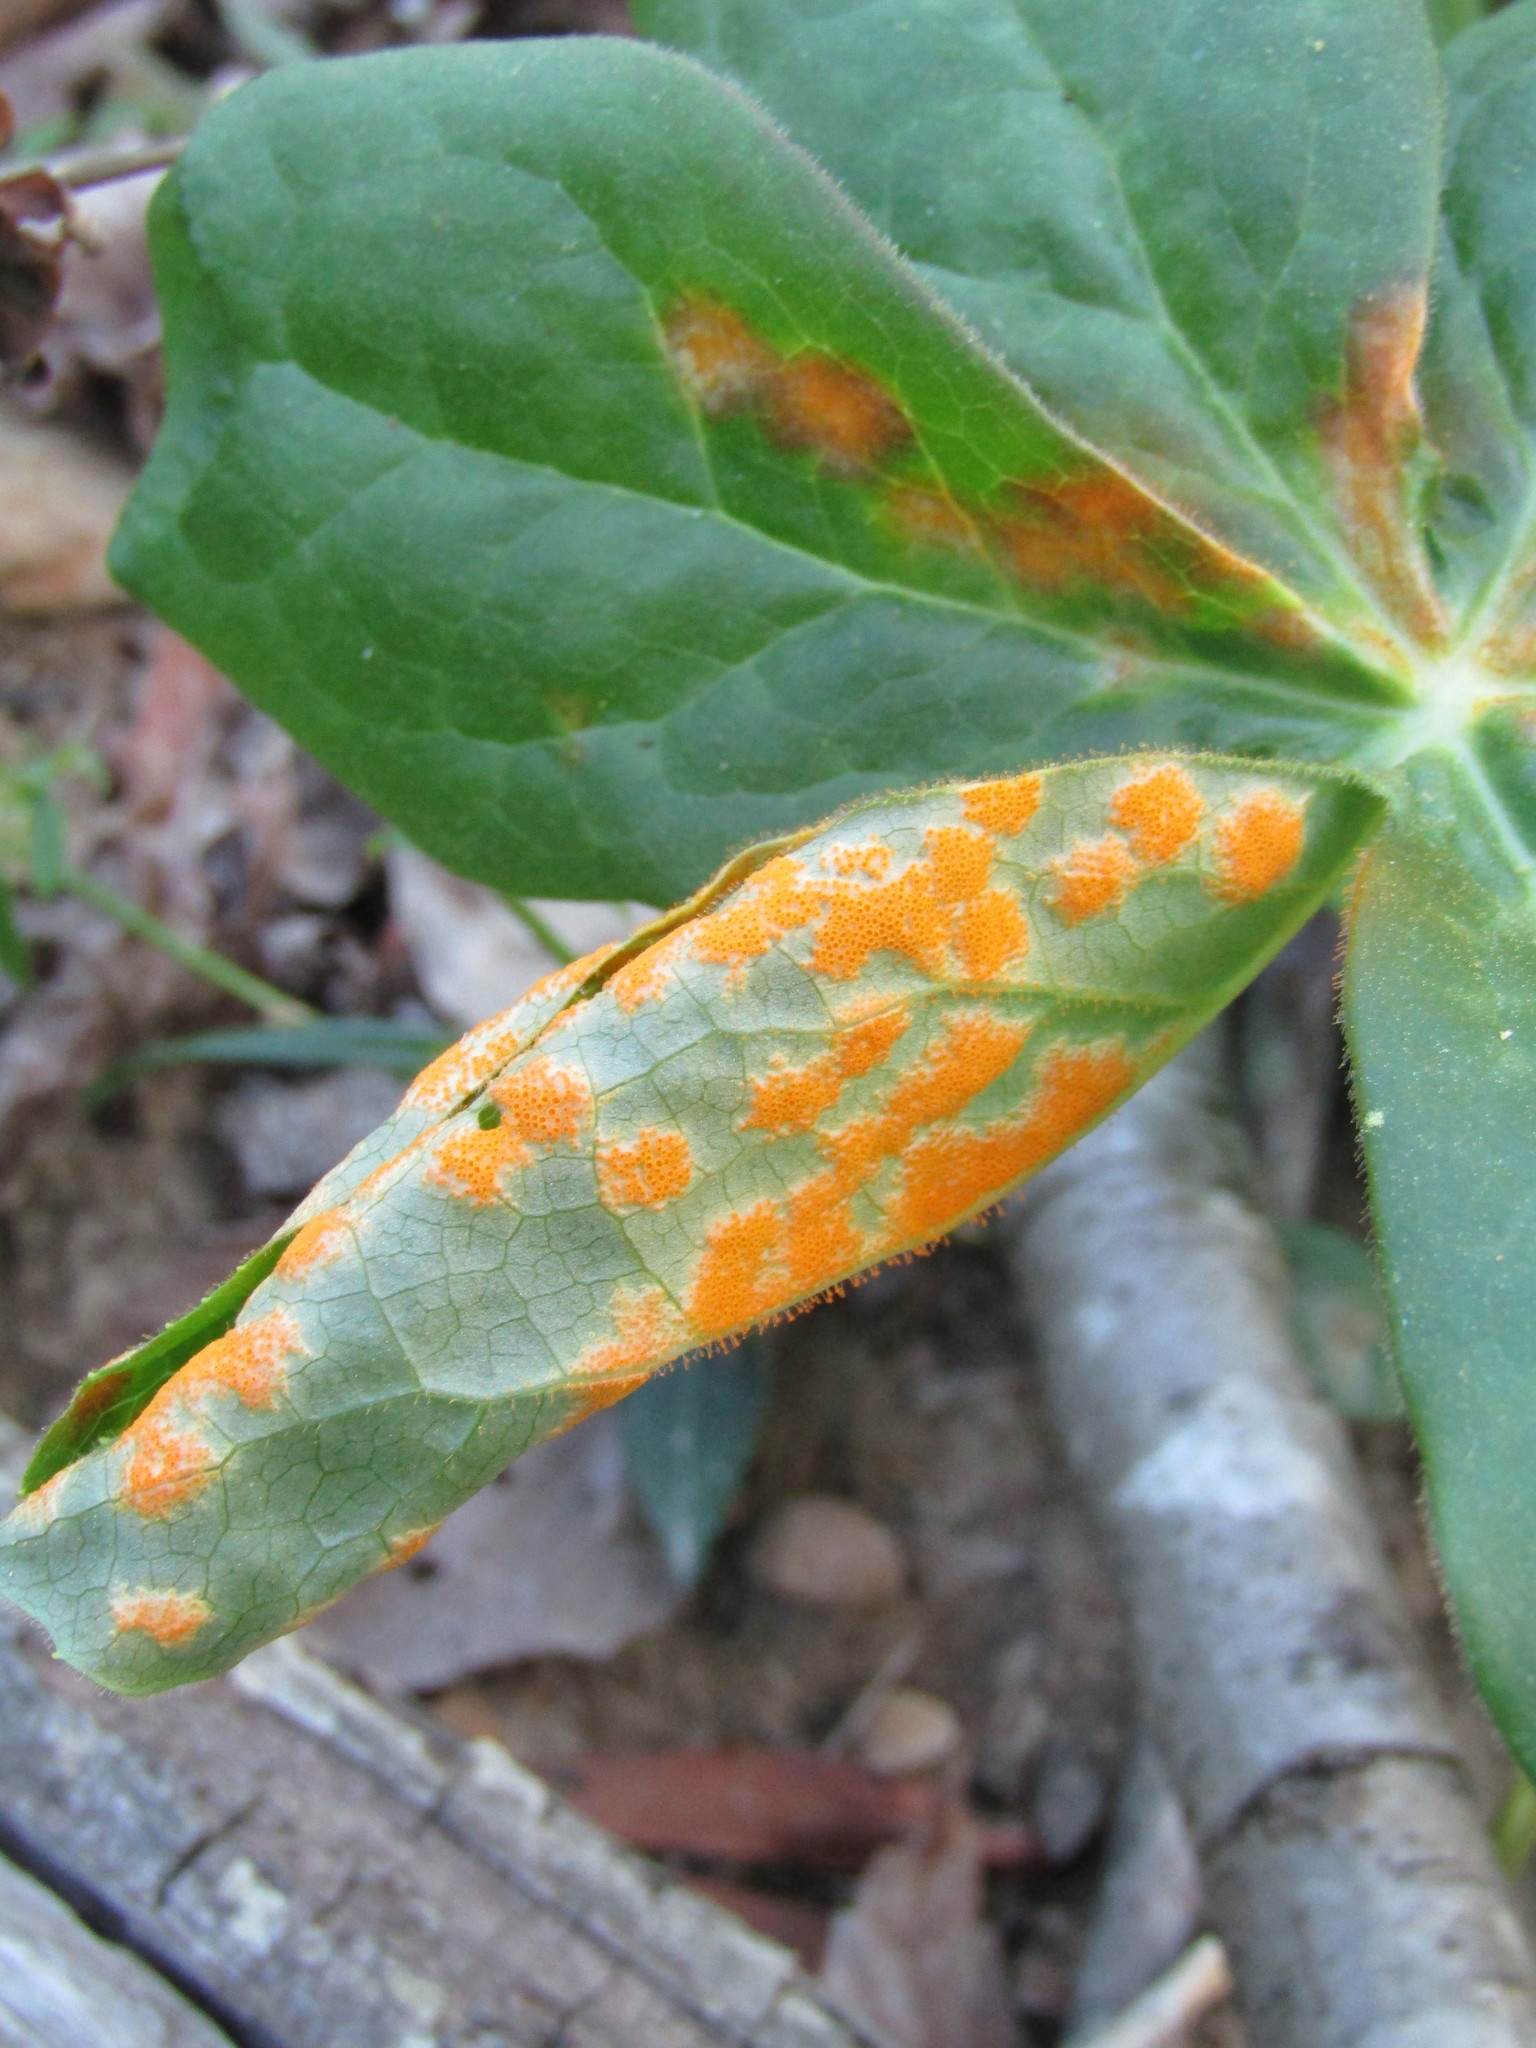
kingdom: Fungi
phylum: Basidiomycota
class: Pucciniomycetes
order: Pucciniales
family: Pucciniaceae
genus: Puccinia
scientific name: Puccinia podophylli
